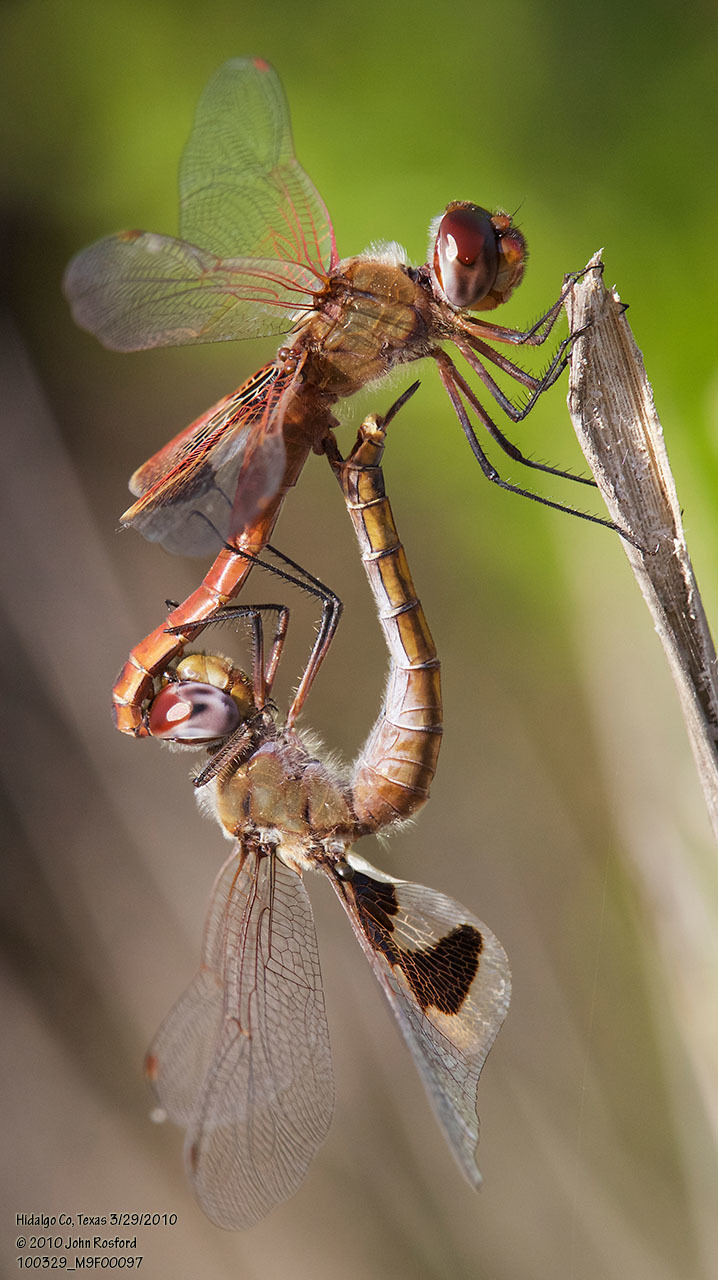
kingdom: Animalia
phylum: Arthropoda
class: Insecta
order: Odonata
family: Libellulidae
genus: Tramea
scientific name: Tramea onusta
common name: Red saddlebags
